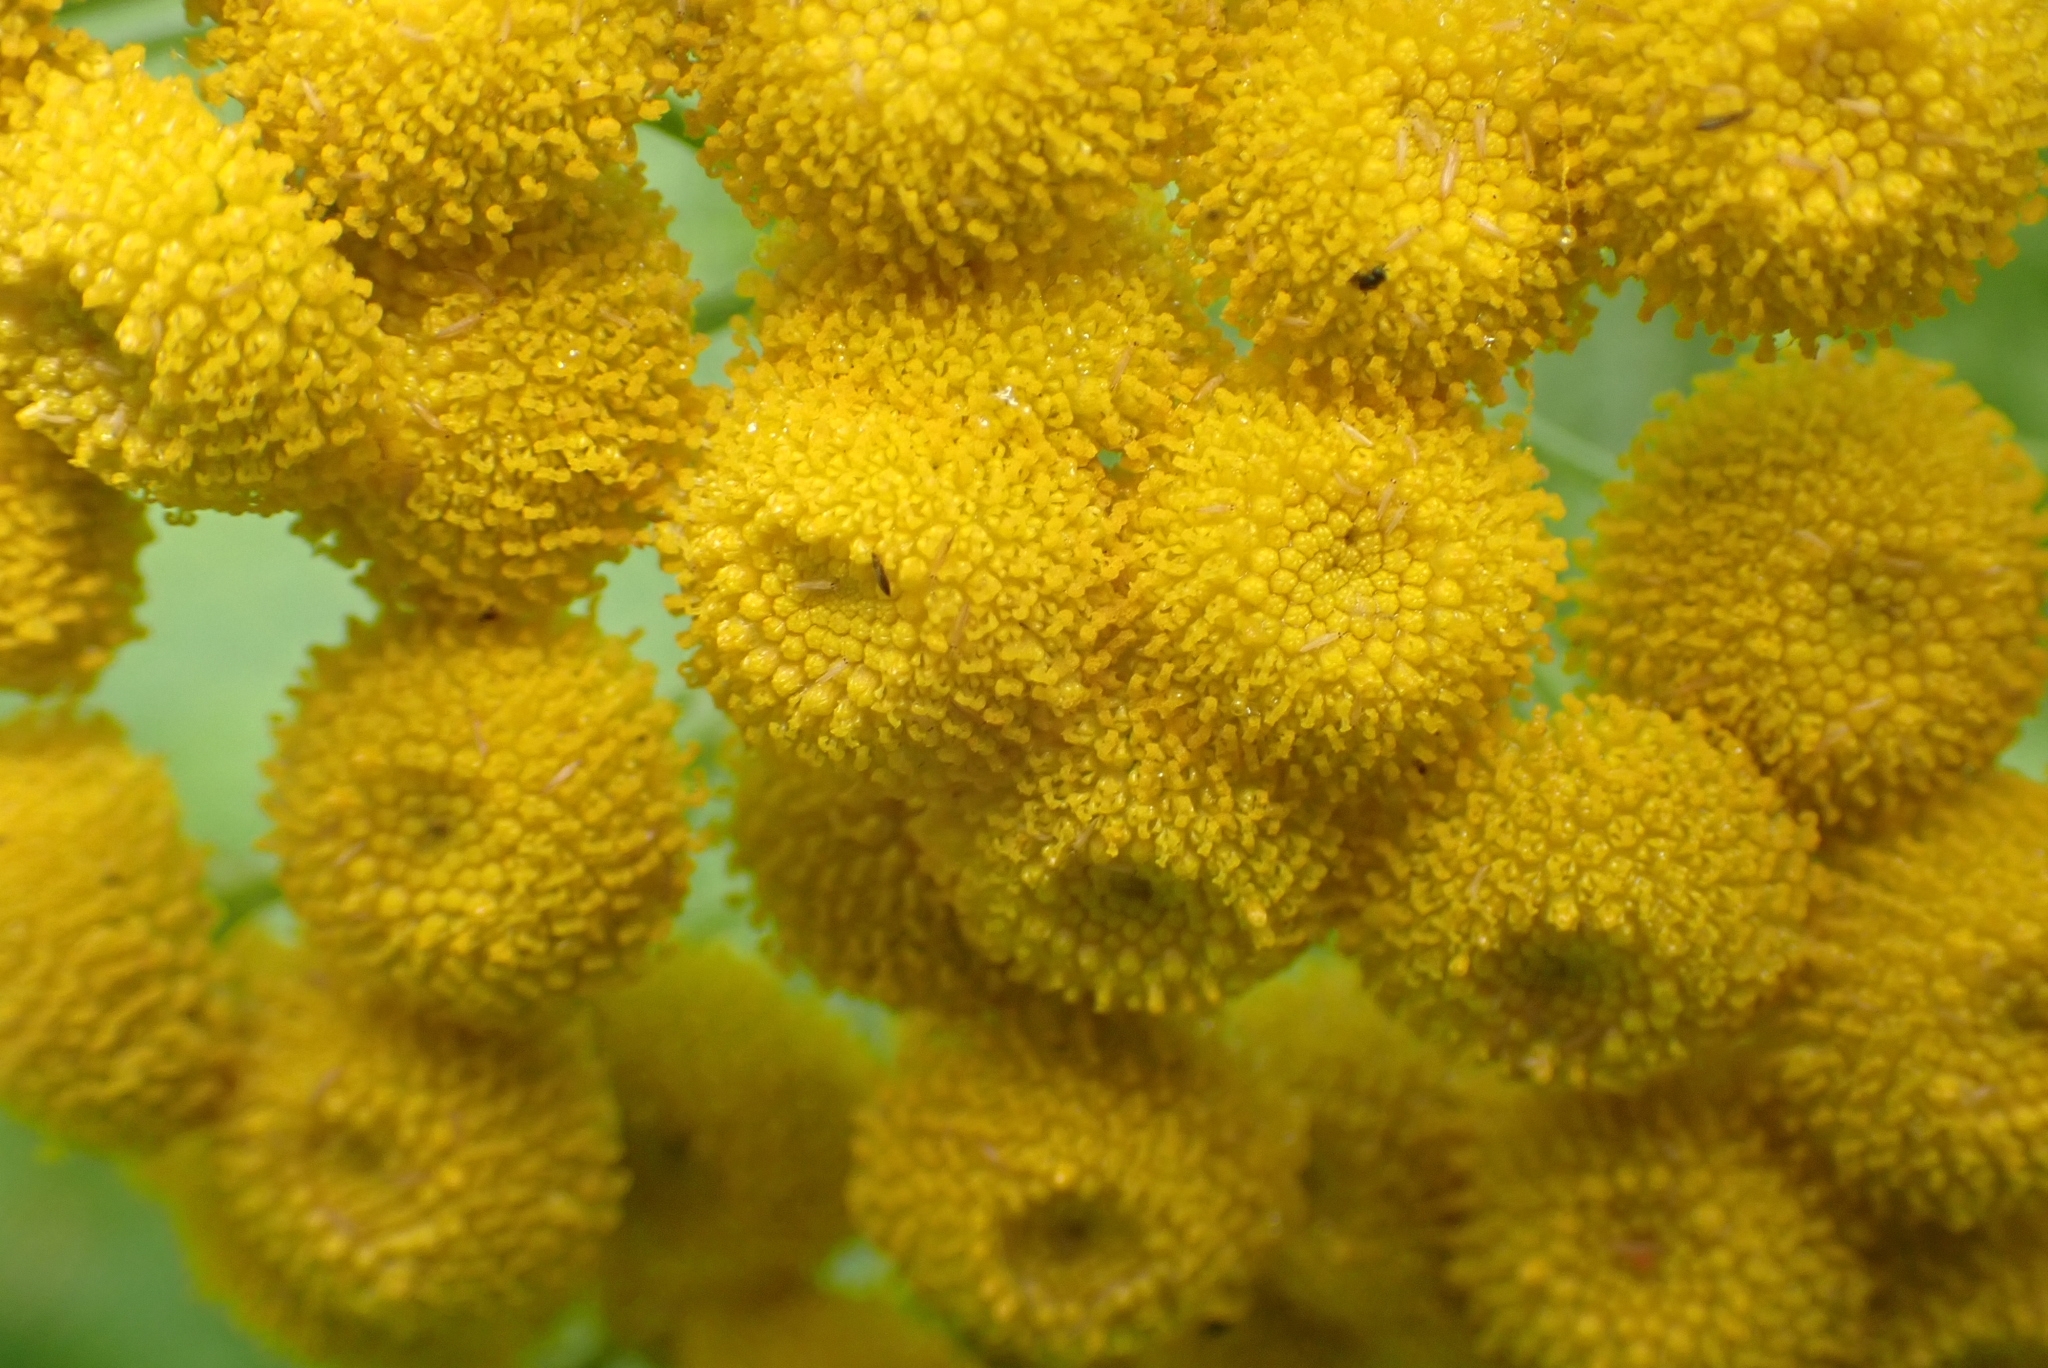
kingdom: Plantae
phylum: Tracheophyta
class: Magnoliopsida
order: Asterales
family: Asteraceae
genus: Tanacetum
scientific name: Tanacetum vulgare
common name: Common tansy
